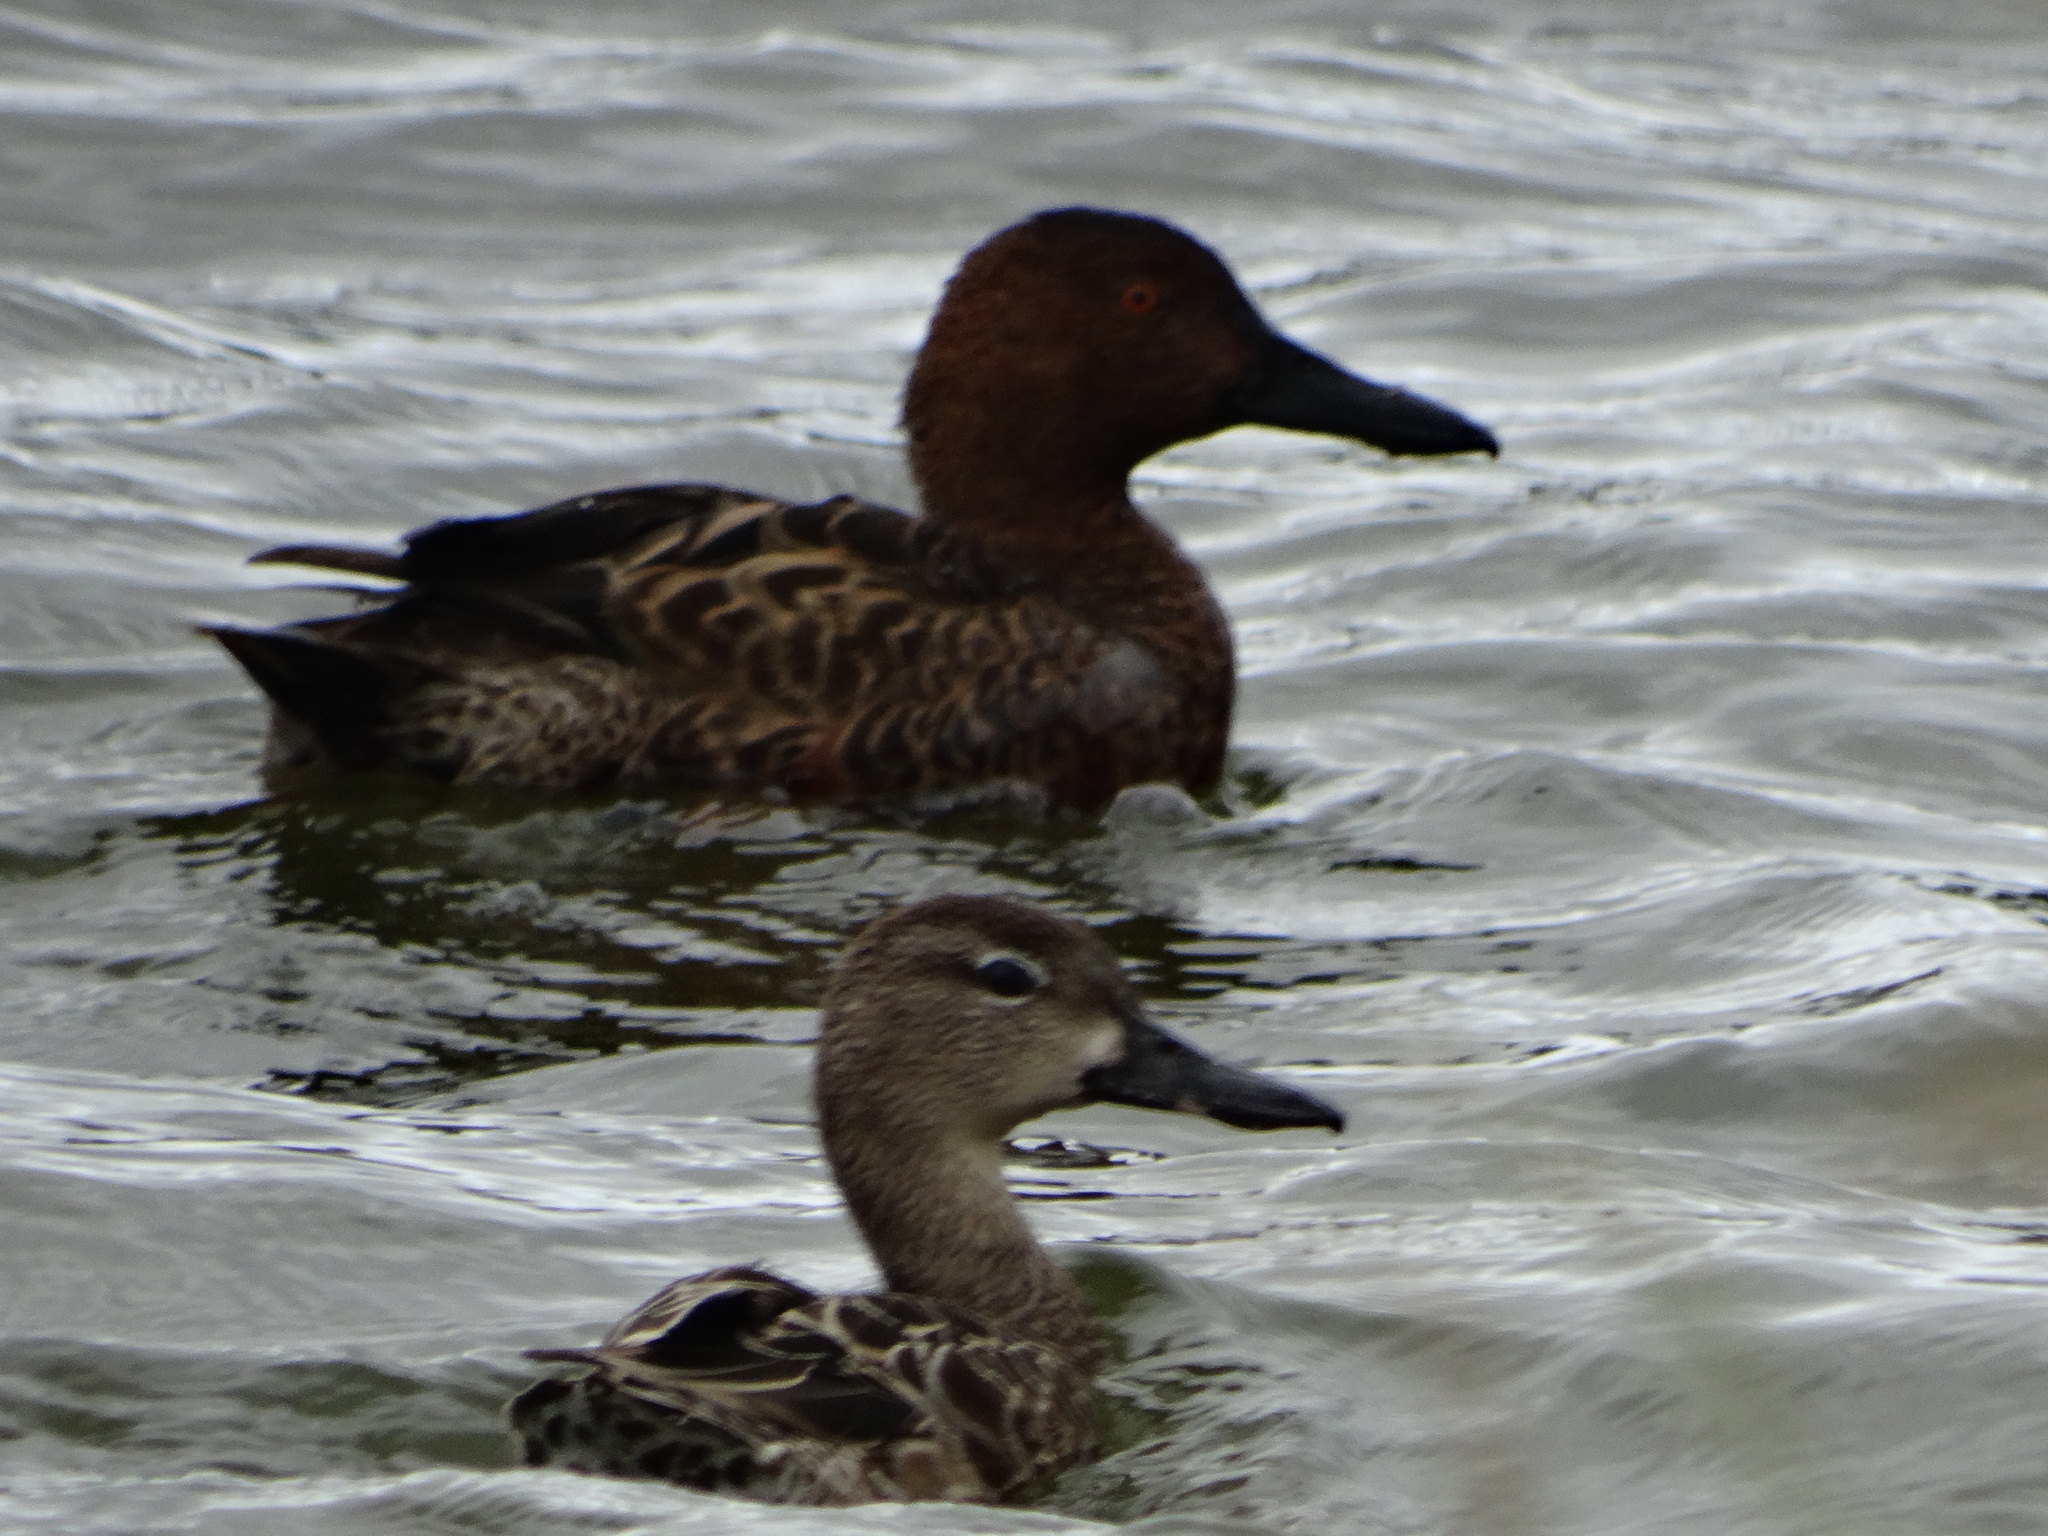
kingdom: Animalia
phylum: Chordata
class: Aves
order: Anseriformes
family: Anatidae
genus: Spatula
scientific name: Spatula cyanoptera
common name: Cinnamon teal
